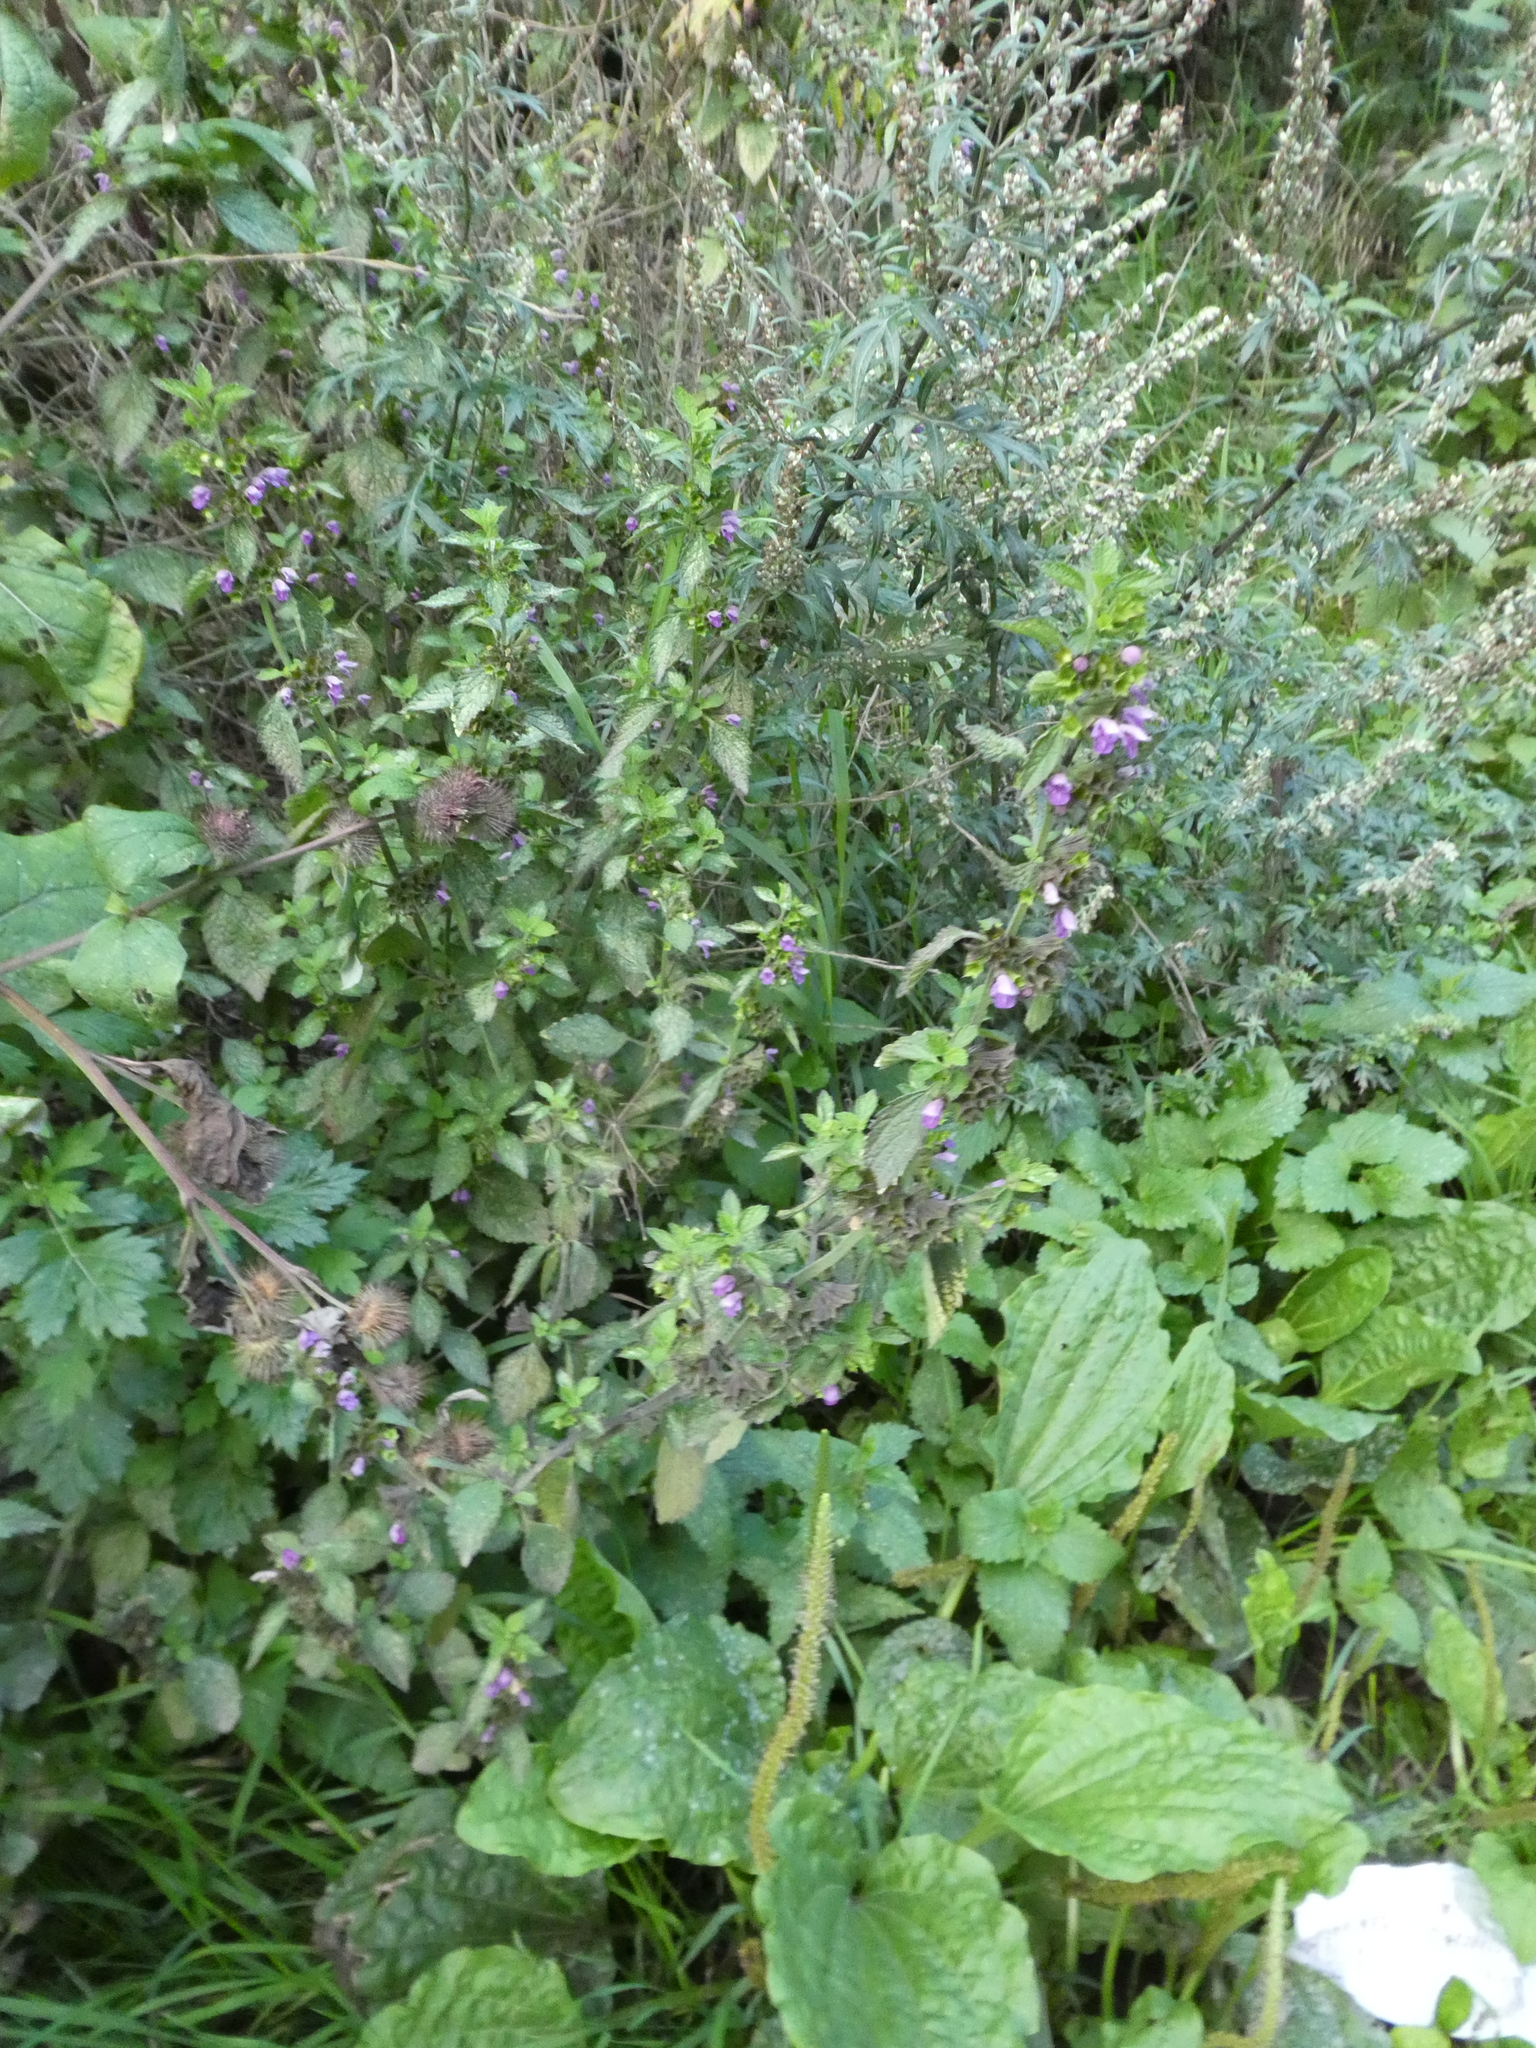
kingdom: Plantae
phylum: Tracheophyta
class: Magnoliopsida
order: Lamiales
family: Lamiaceae
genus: Ballota
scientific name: Ballota nigra
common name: Black horehound
